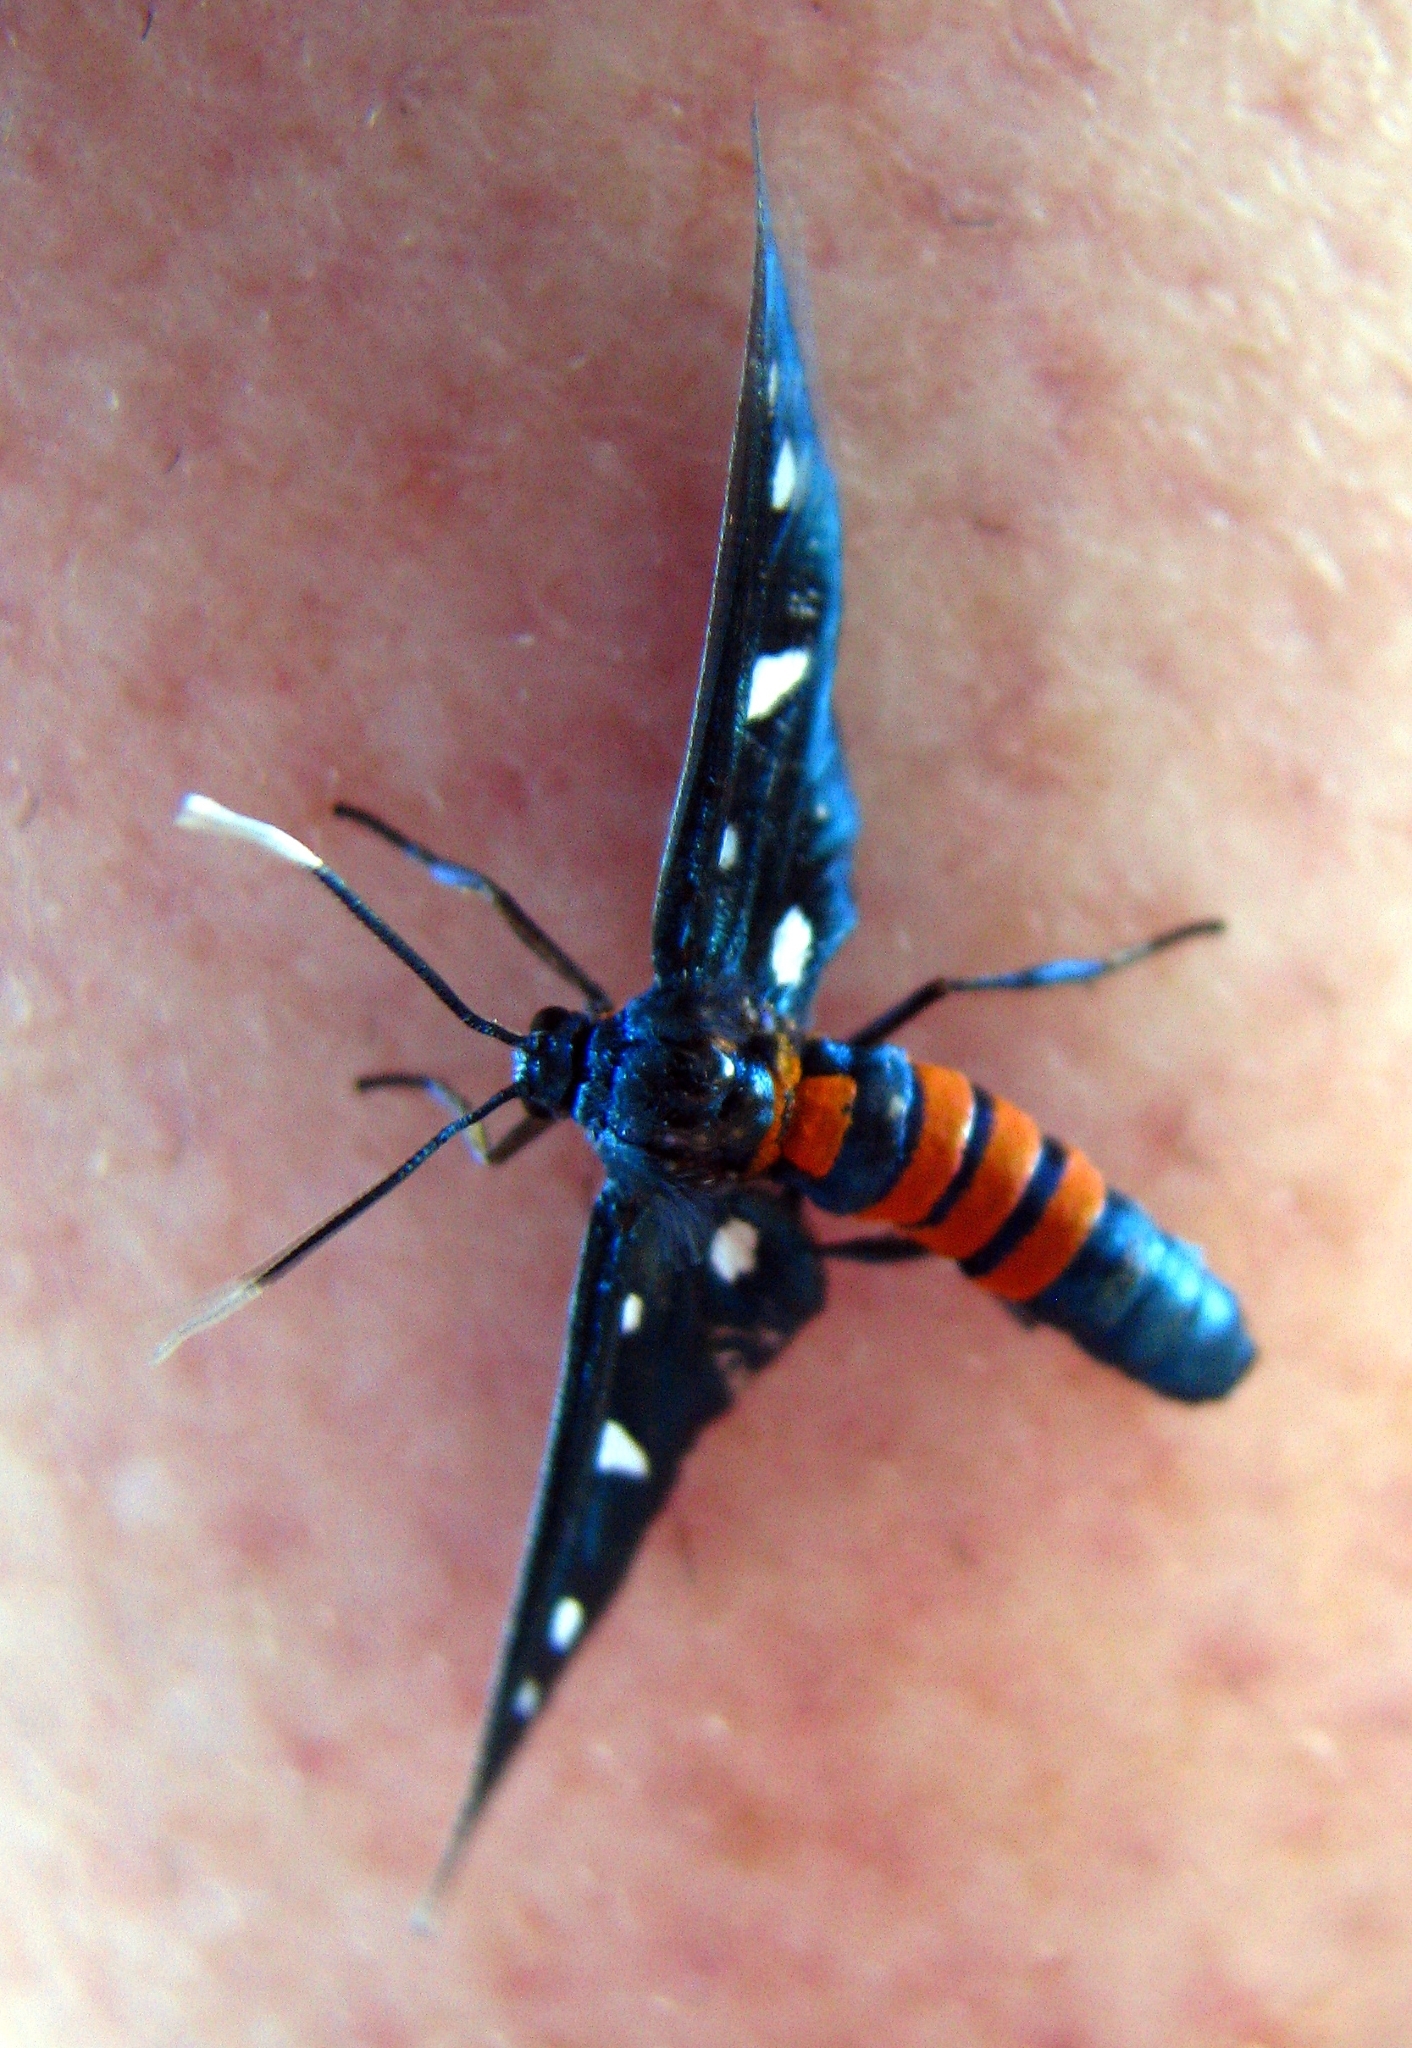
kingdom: Animalia
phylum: Arthropoda
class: Insecta
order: Lepidoptera
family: Erebidae
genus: Amata
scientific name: Amata phaeobasis
